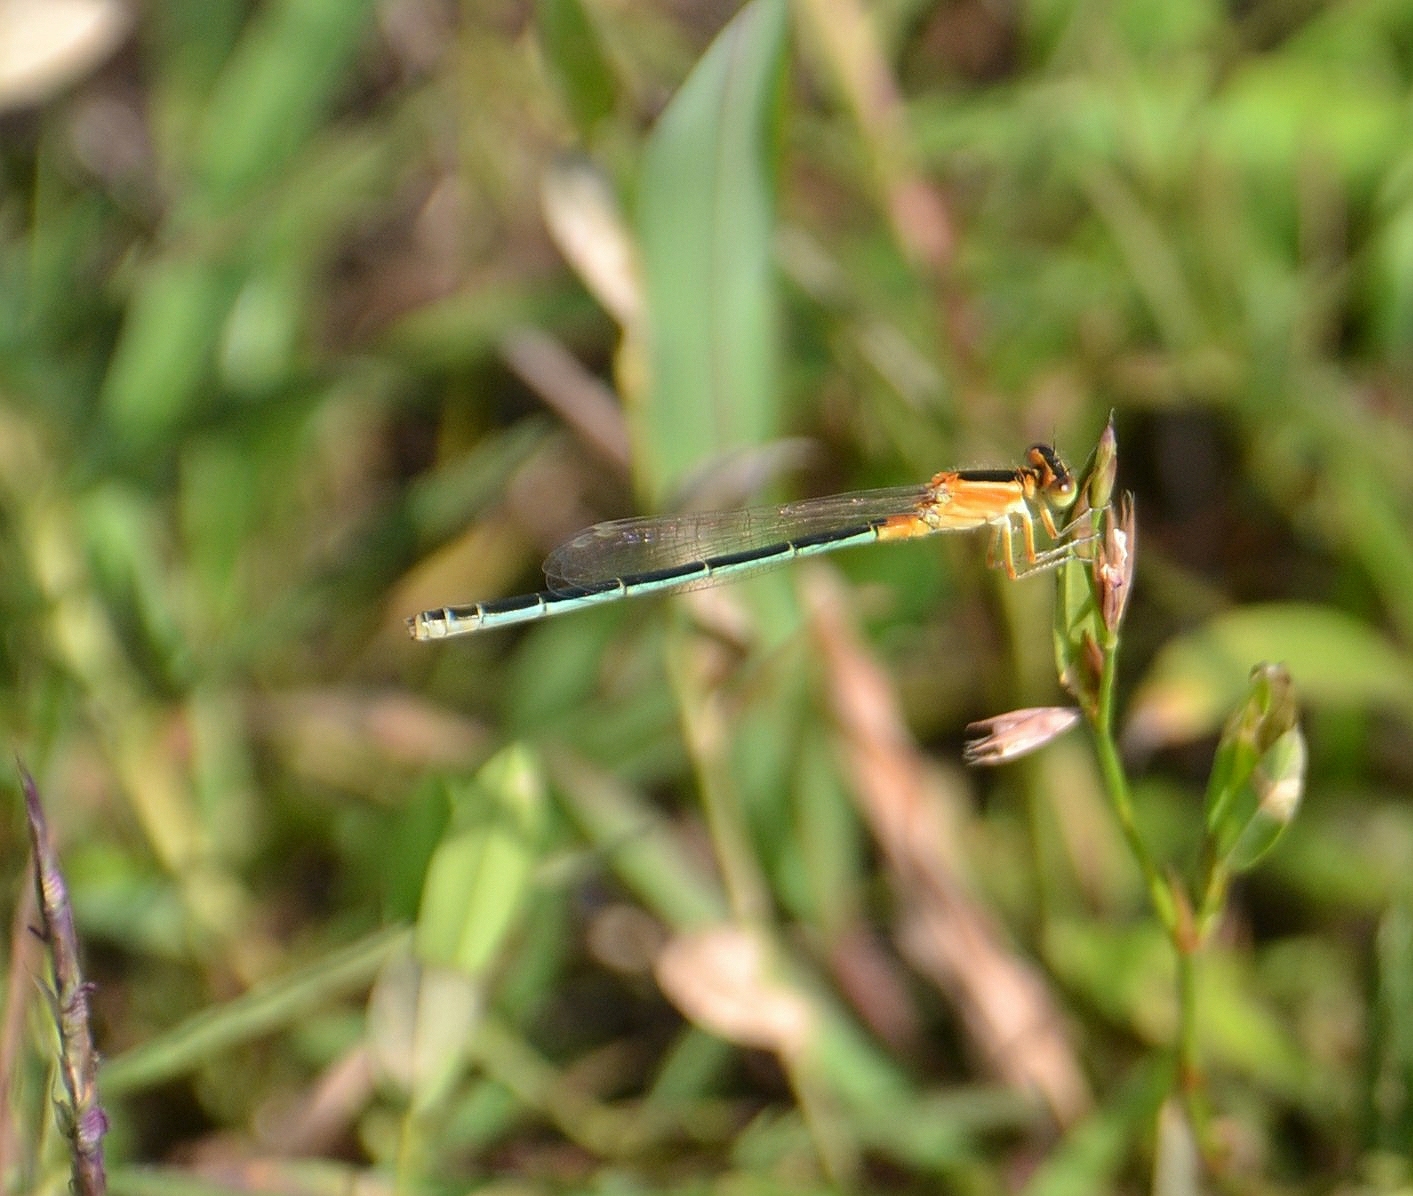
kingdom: Animalia
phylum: Arthropoda
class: Insecta
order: Odonata
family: Coenagrionidae
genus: Ischnura
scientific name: Ischnura senegalensis
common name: Tropical bluetail
